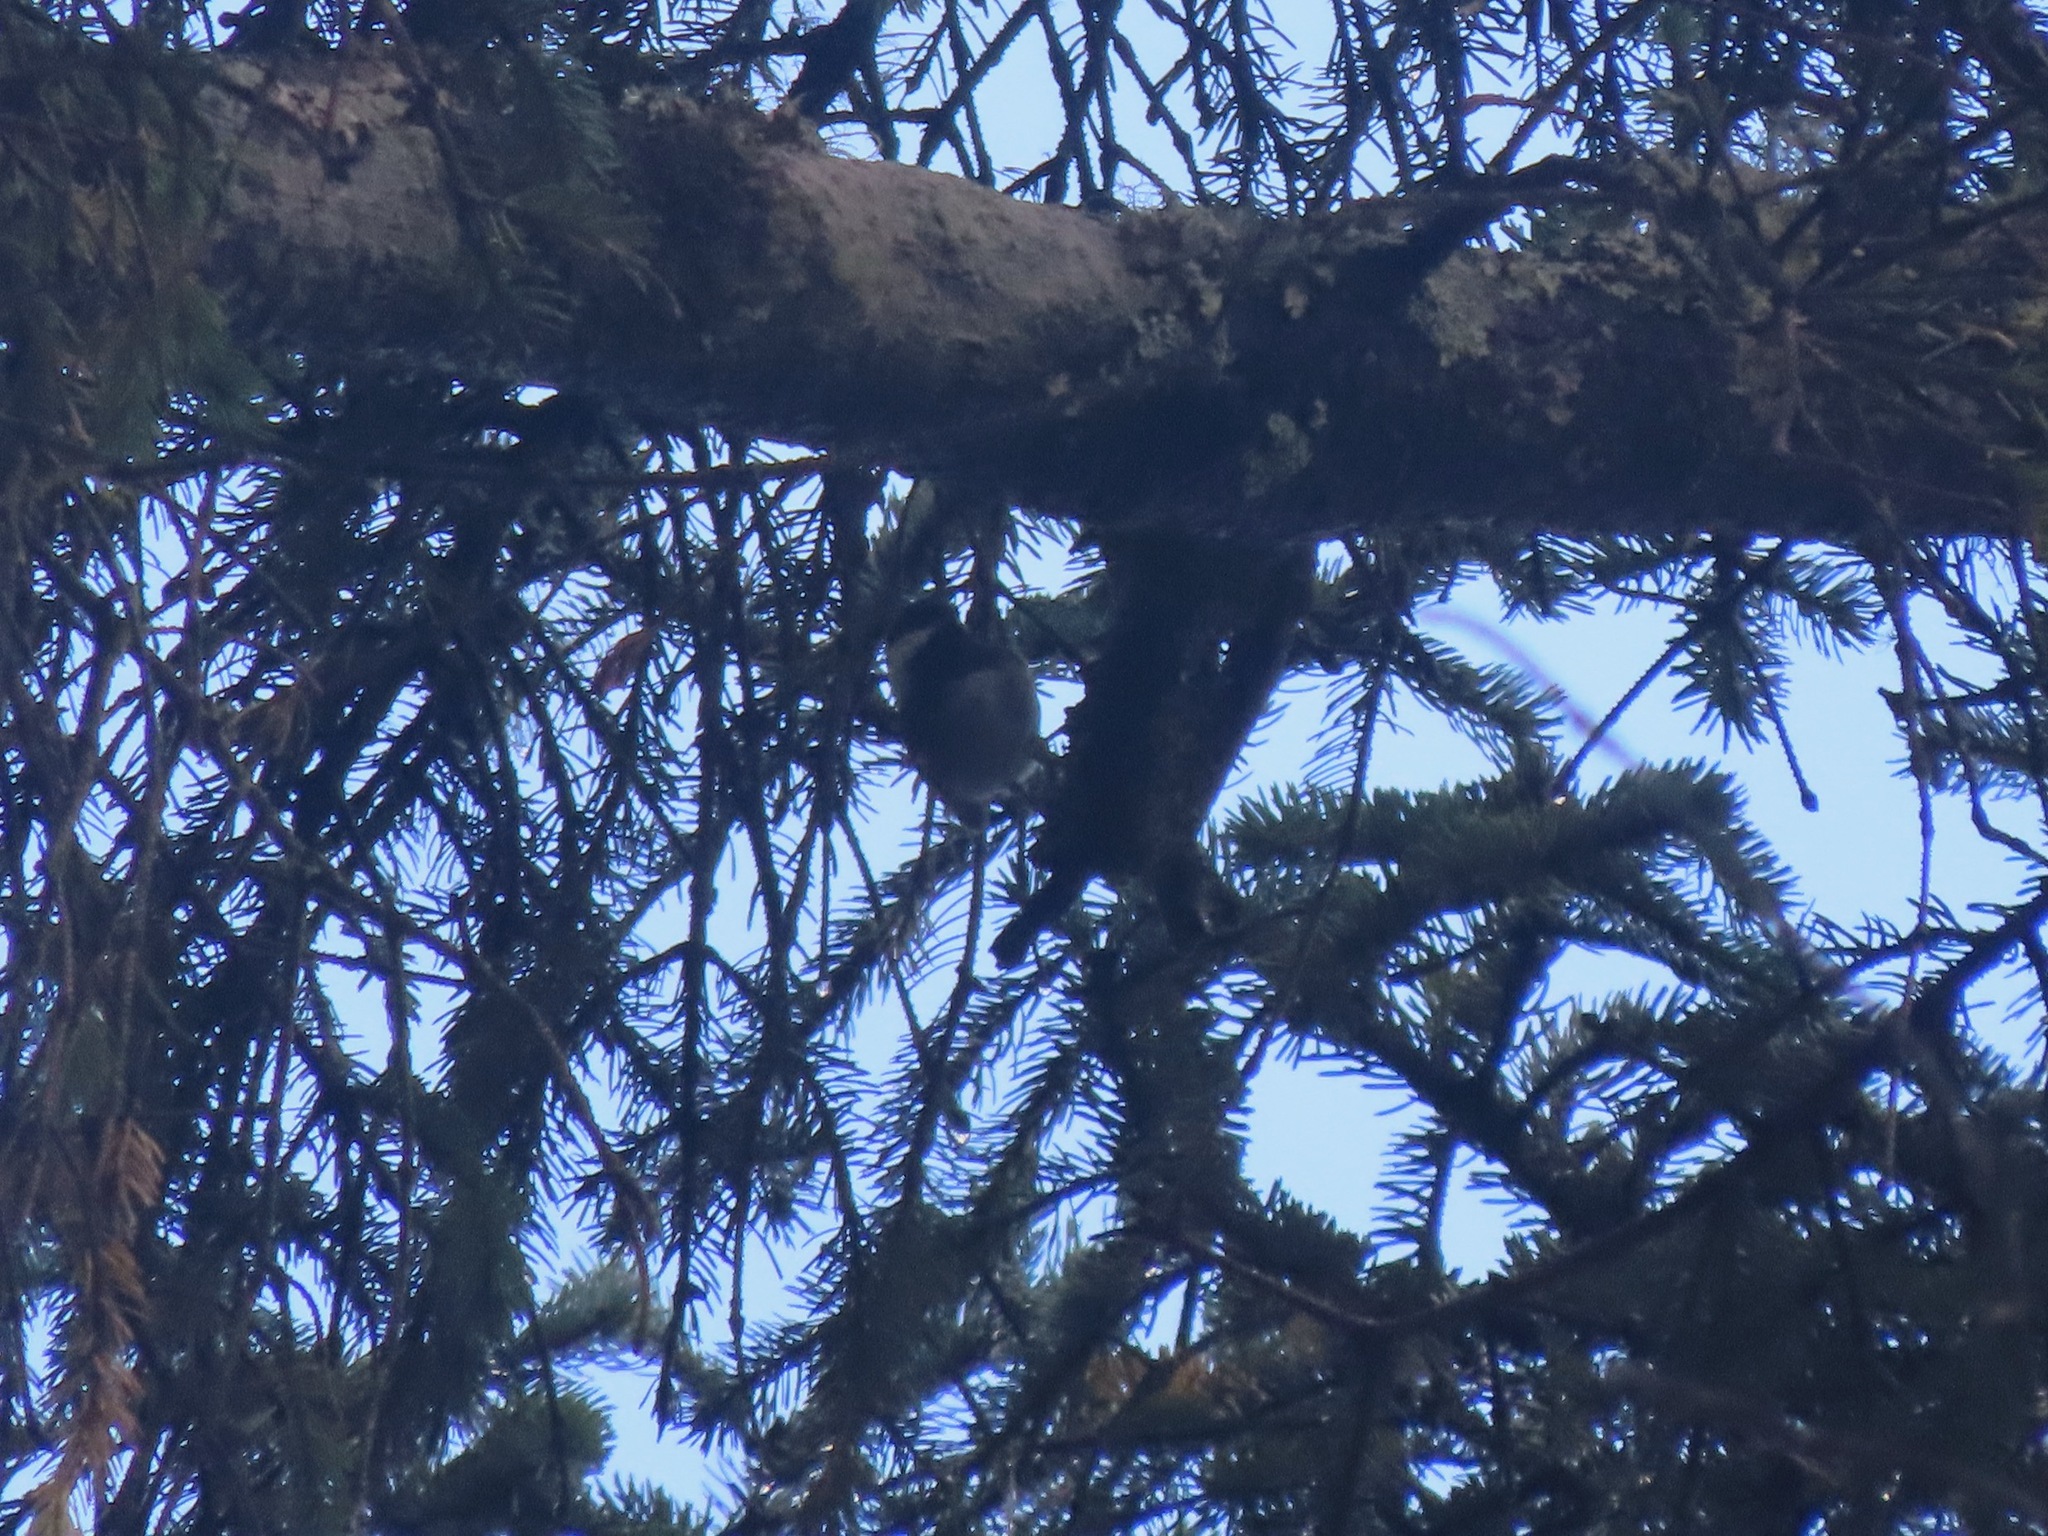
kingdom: Animalia
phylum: Chordata
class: Aves
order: Passeriformes
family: Paridae
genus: Poecile
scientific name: Poecile rufescens
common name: Chestnut-backed chickadee
